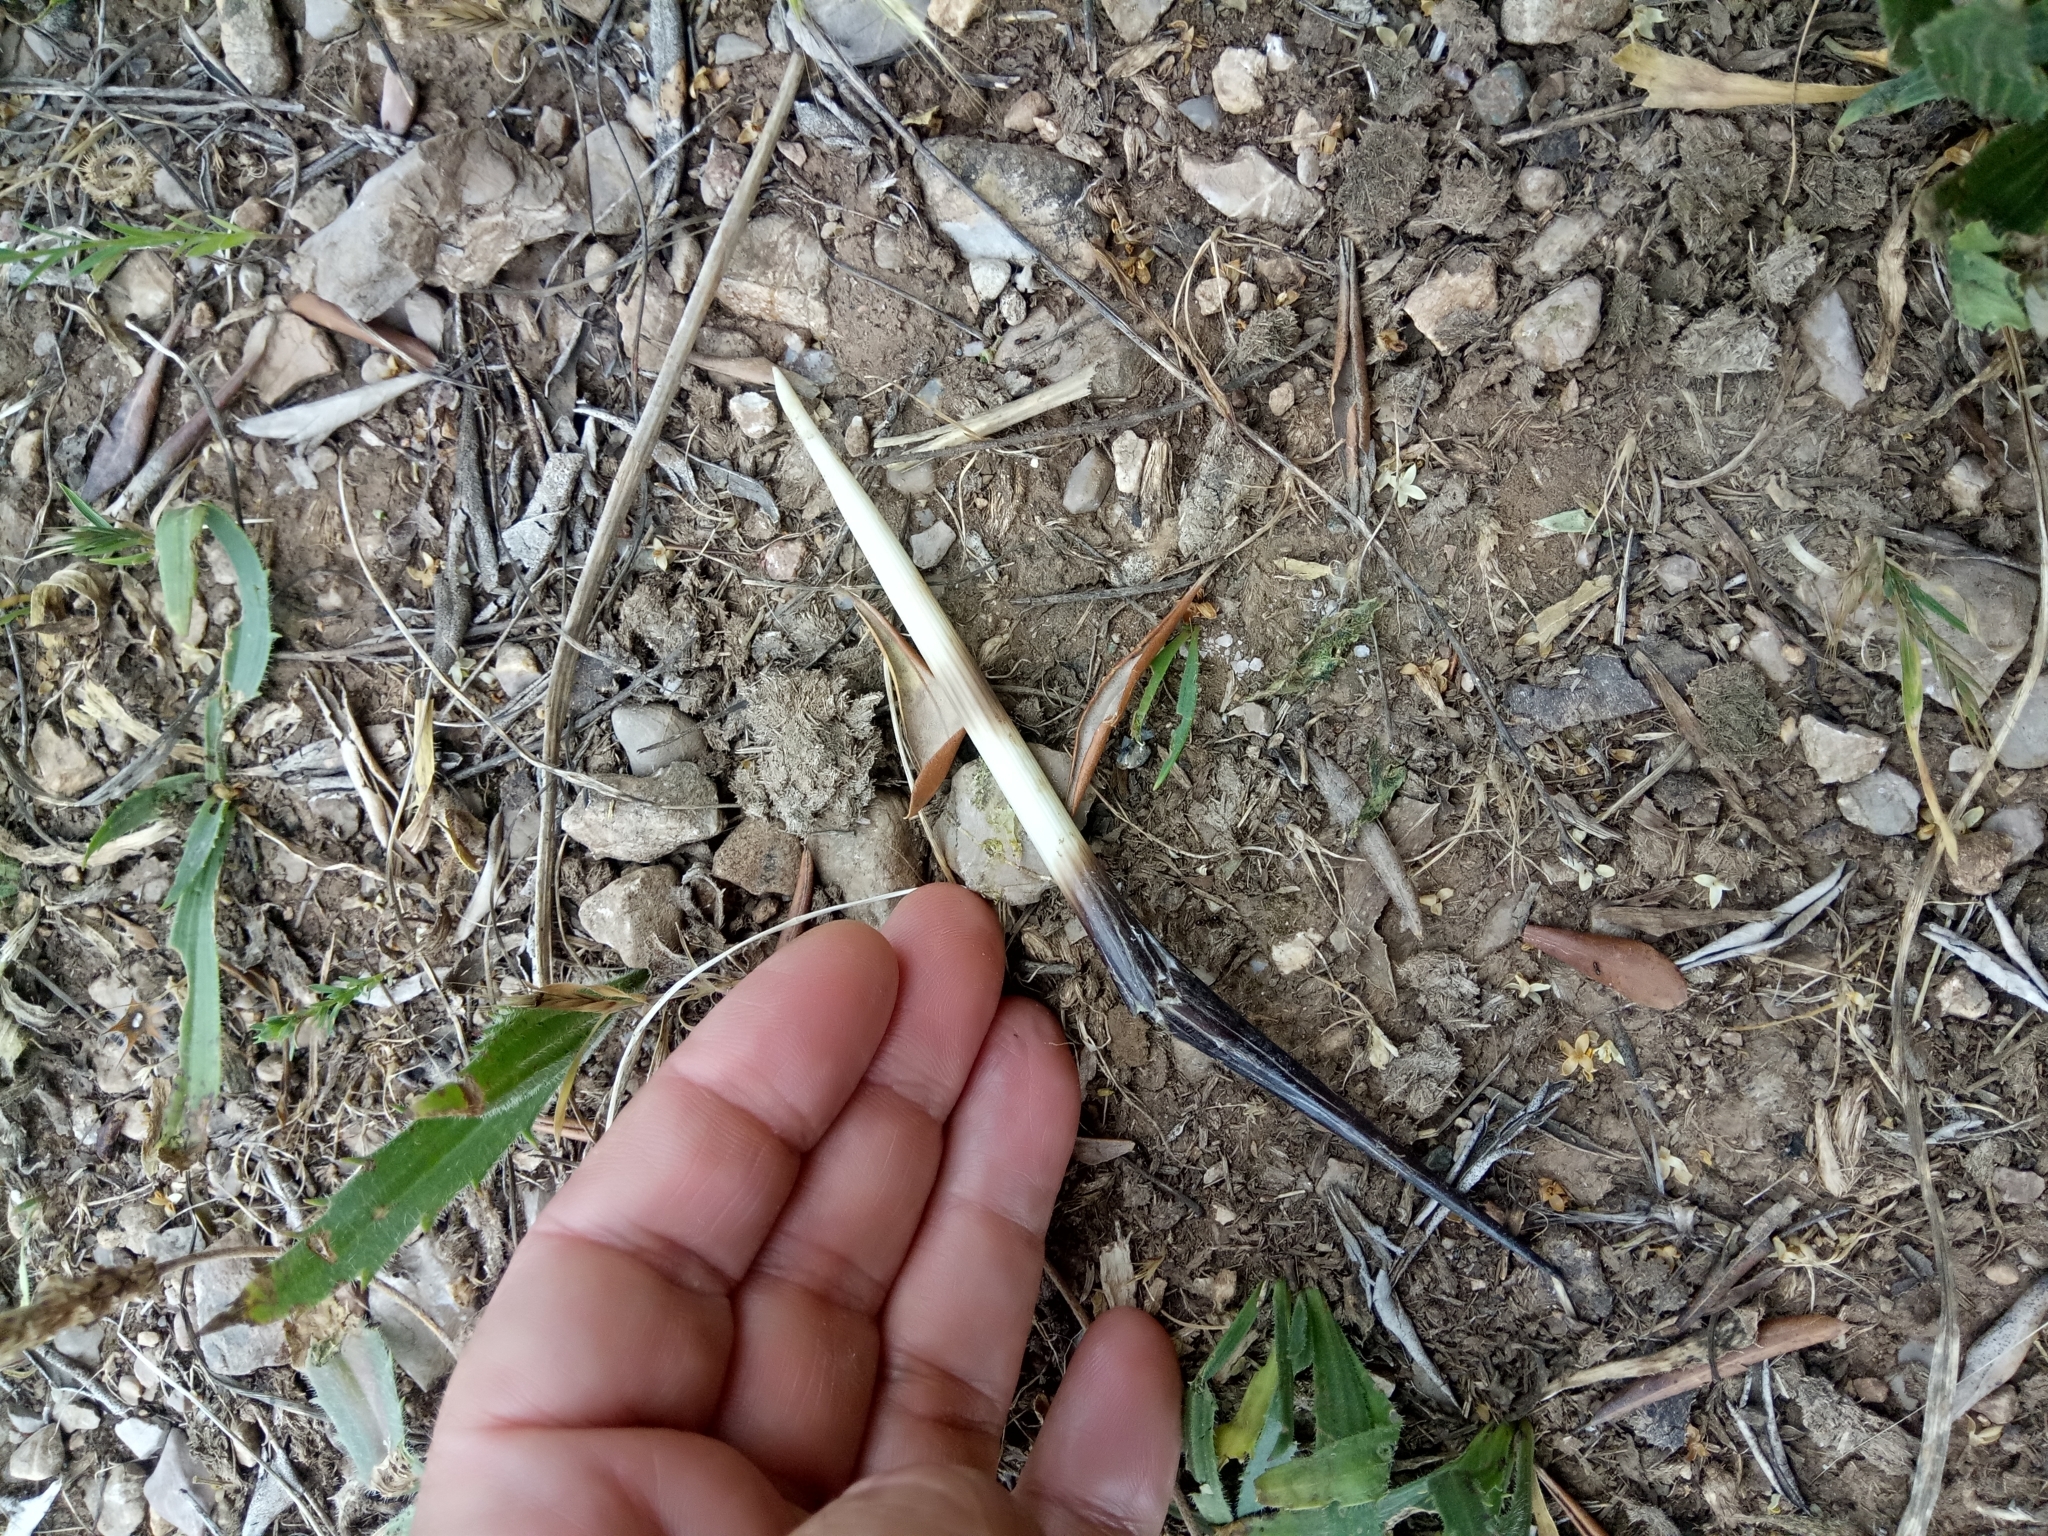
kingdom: Animalia
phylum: Chordata
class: Mammalia
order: Rodentia
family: Hystricidae
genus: Hystrix
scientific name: Hystrix cristata
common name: Crested porcupine
